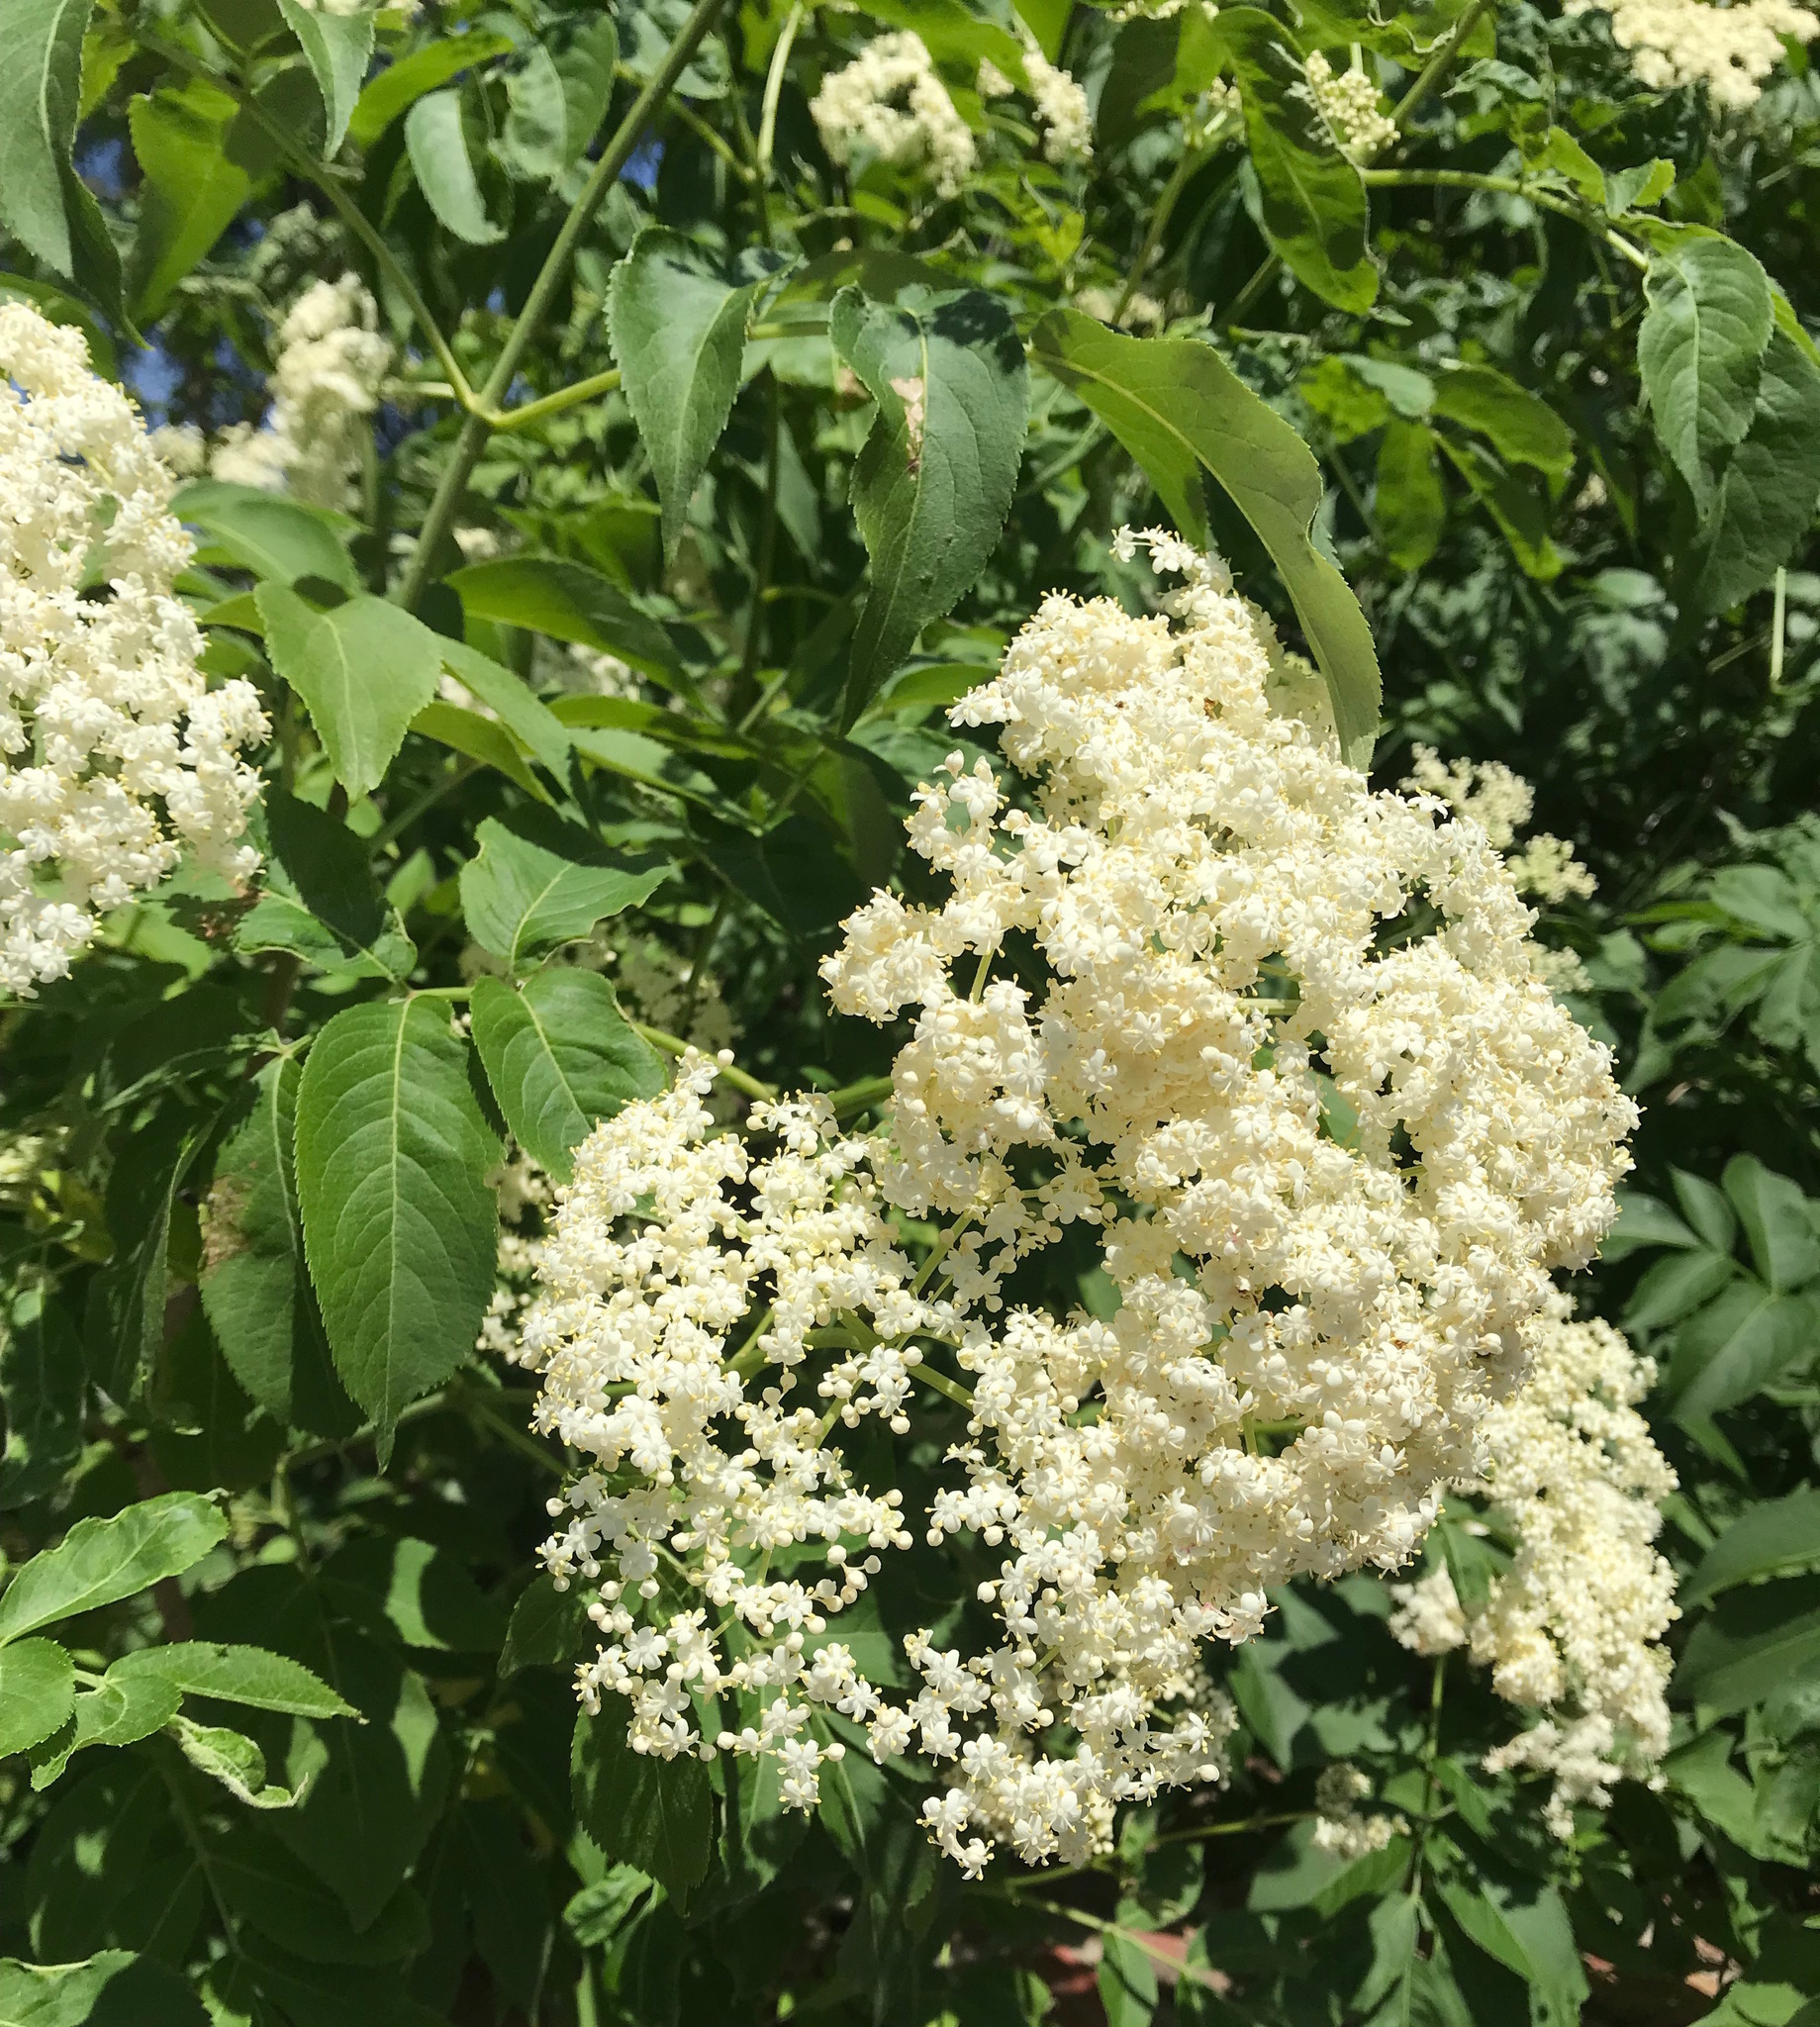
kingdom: Plantae
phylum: Tracheophyta
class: Magnoliopsida
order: Dipsacales
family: Viburnaceae
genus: Sambucus
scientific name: Sambucus canadensis
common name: American elder
